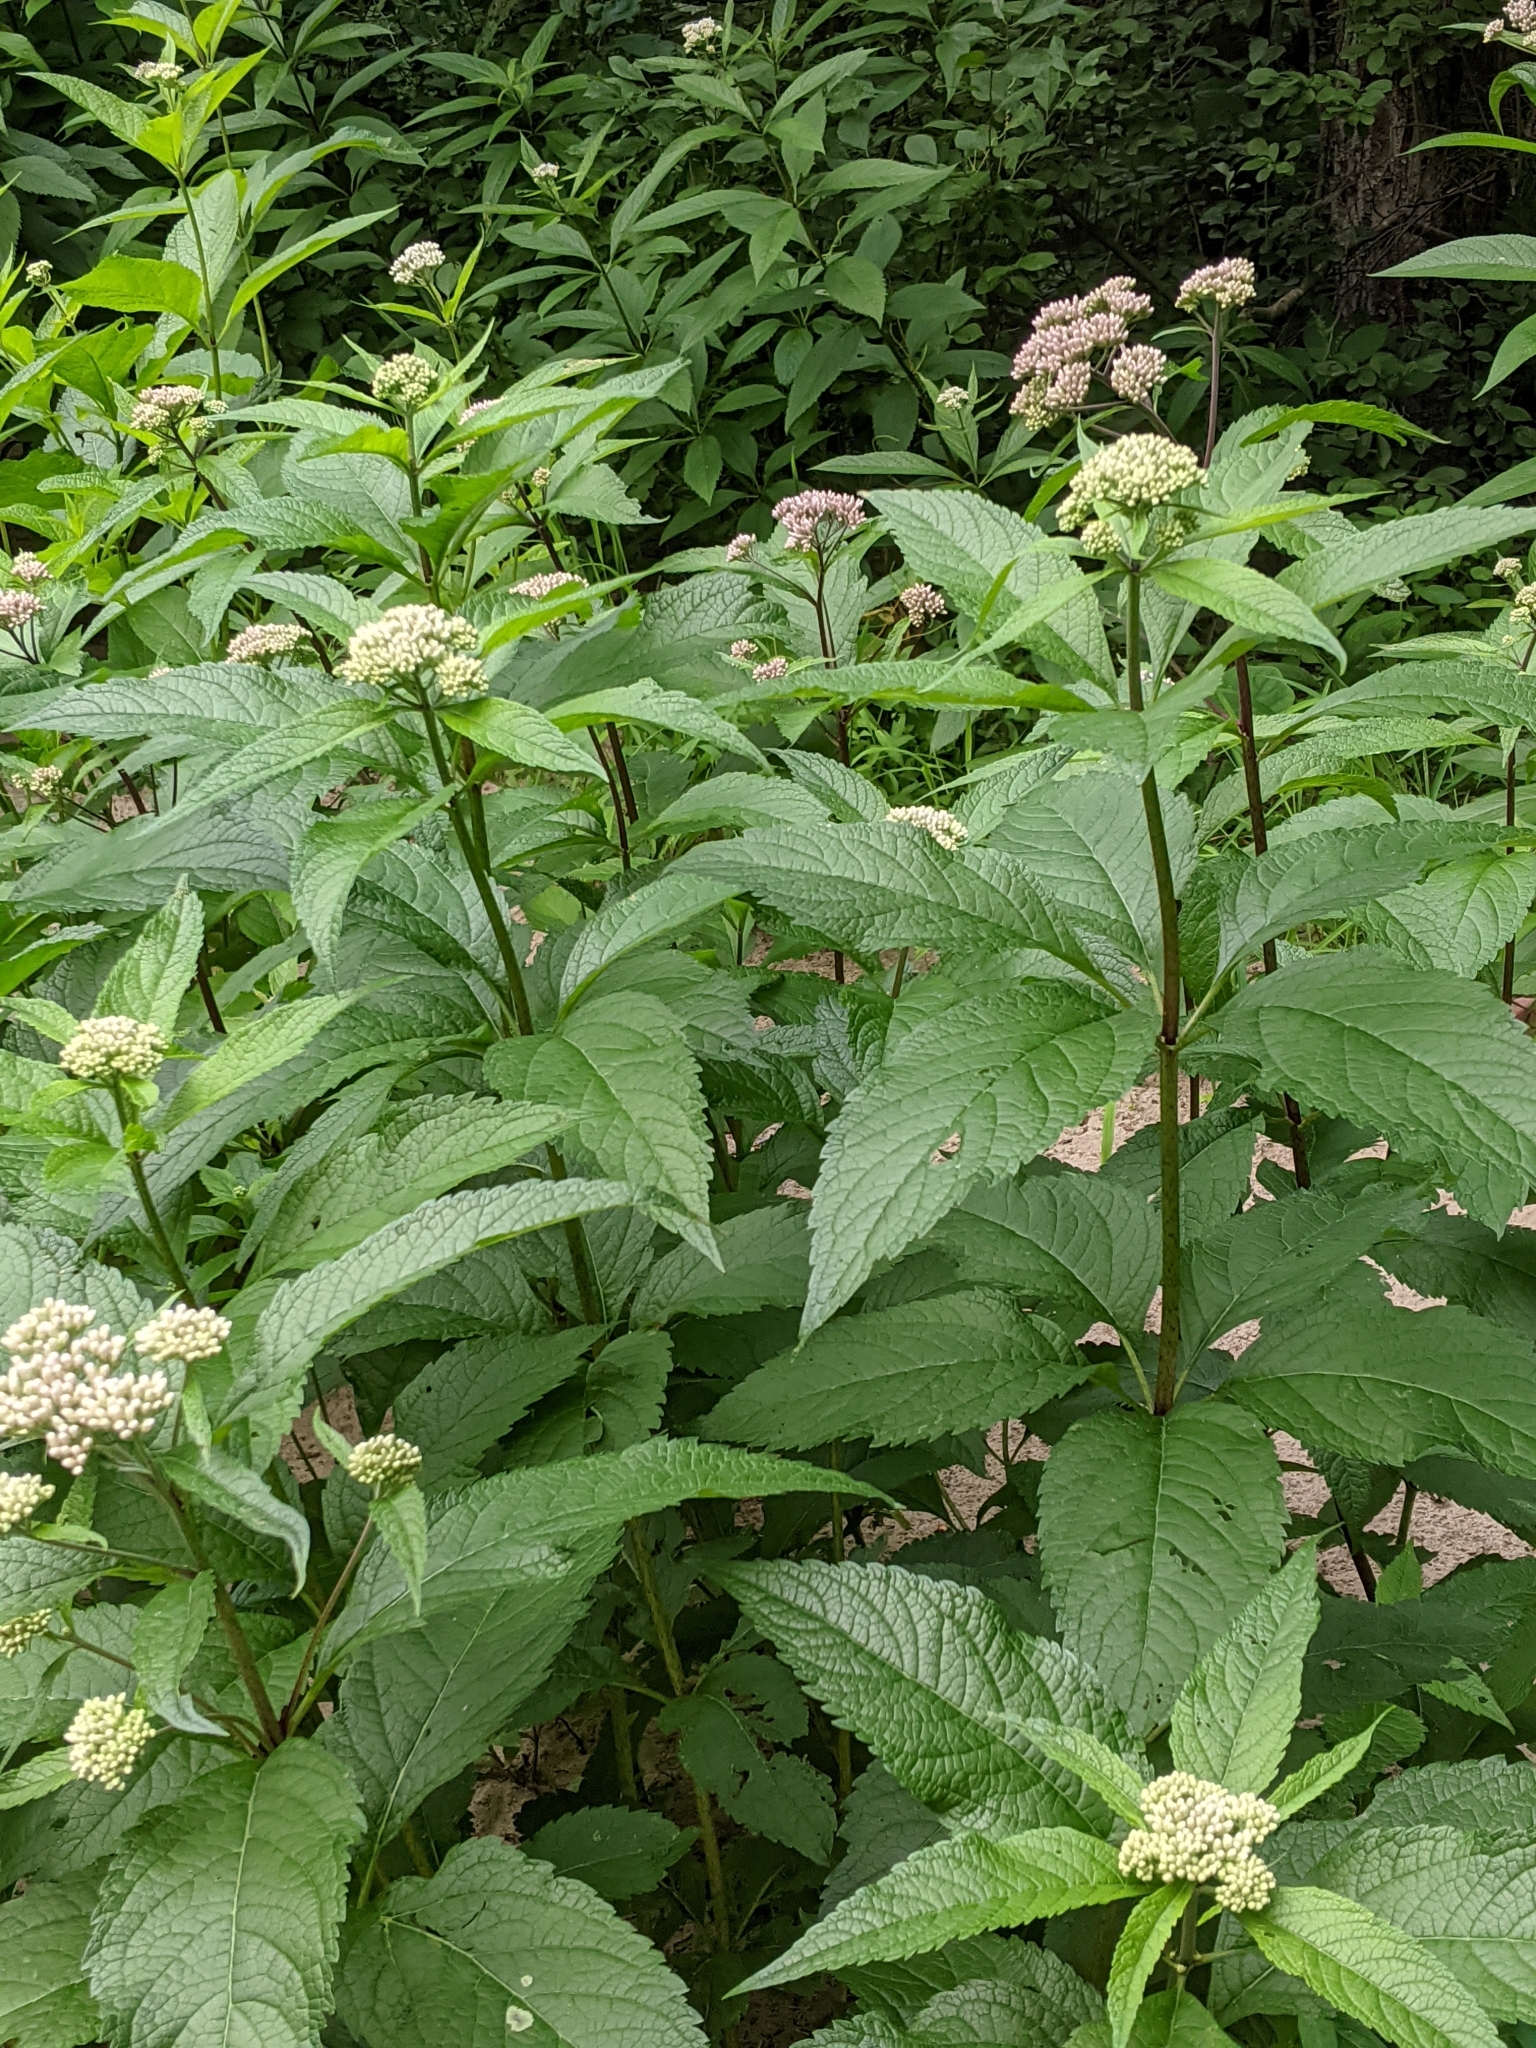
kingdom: Plantae
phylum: Tracheophyta
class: Magnoliopsida
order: Asterales
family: Asteraceae
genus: Eutrochium
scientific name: Eutrochium maculatum
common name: Spotted joe pye weed
